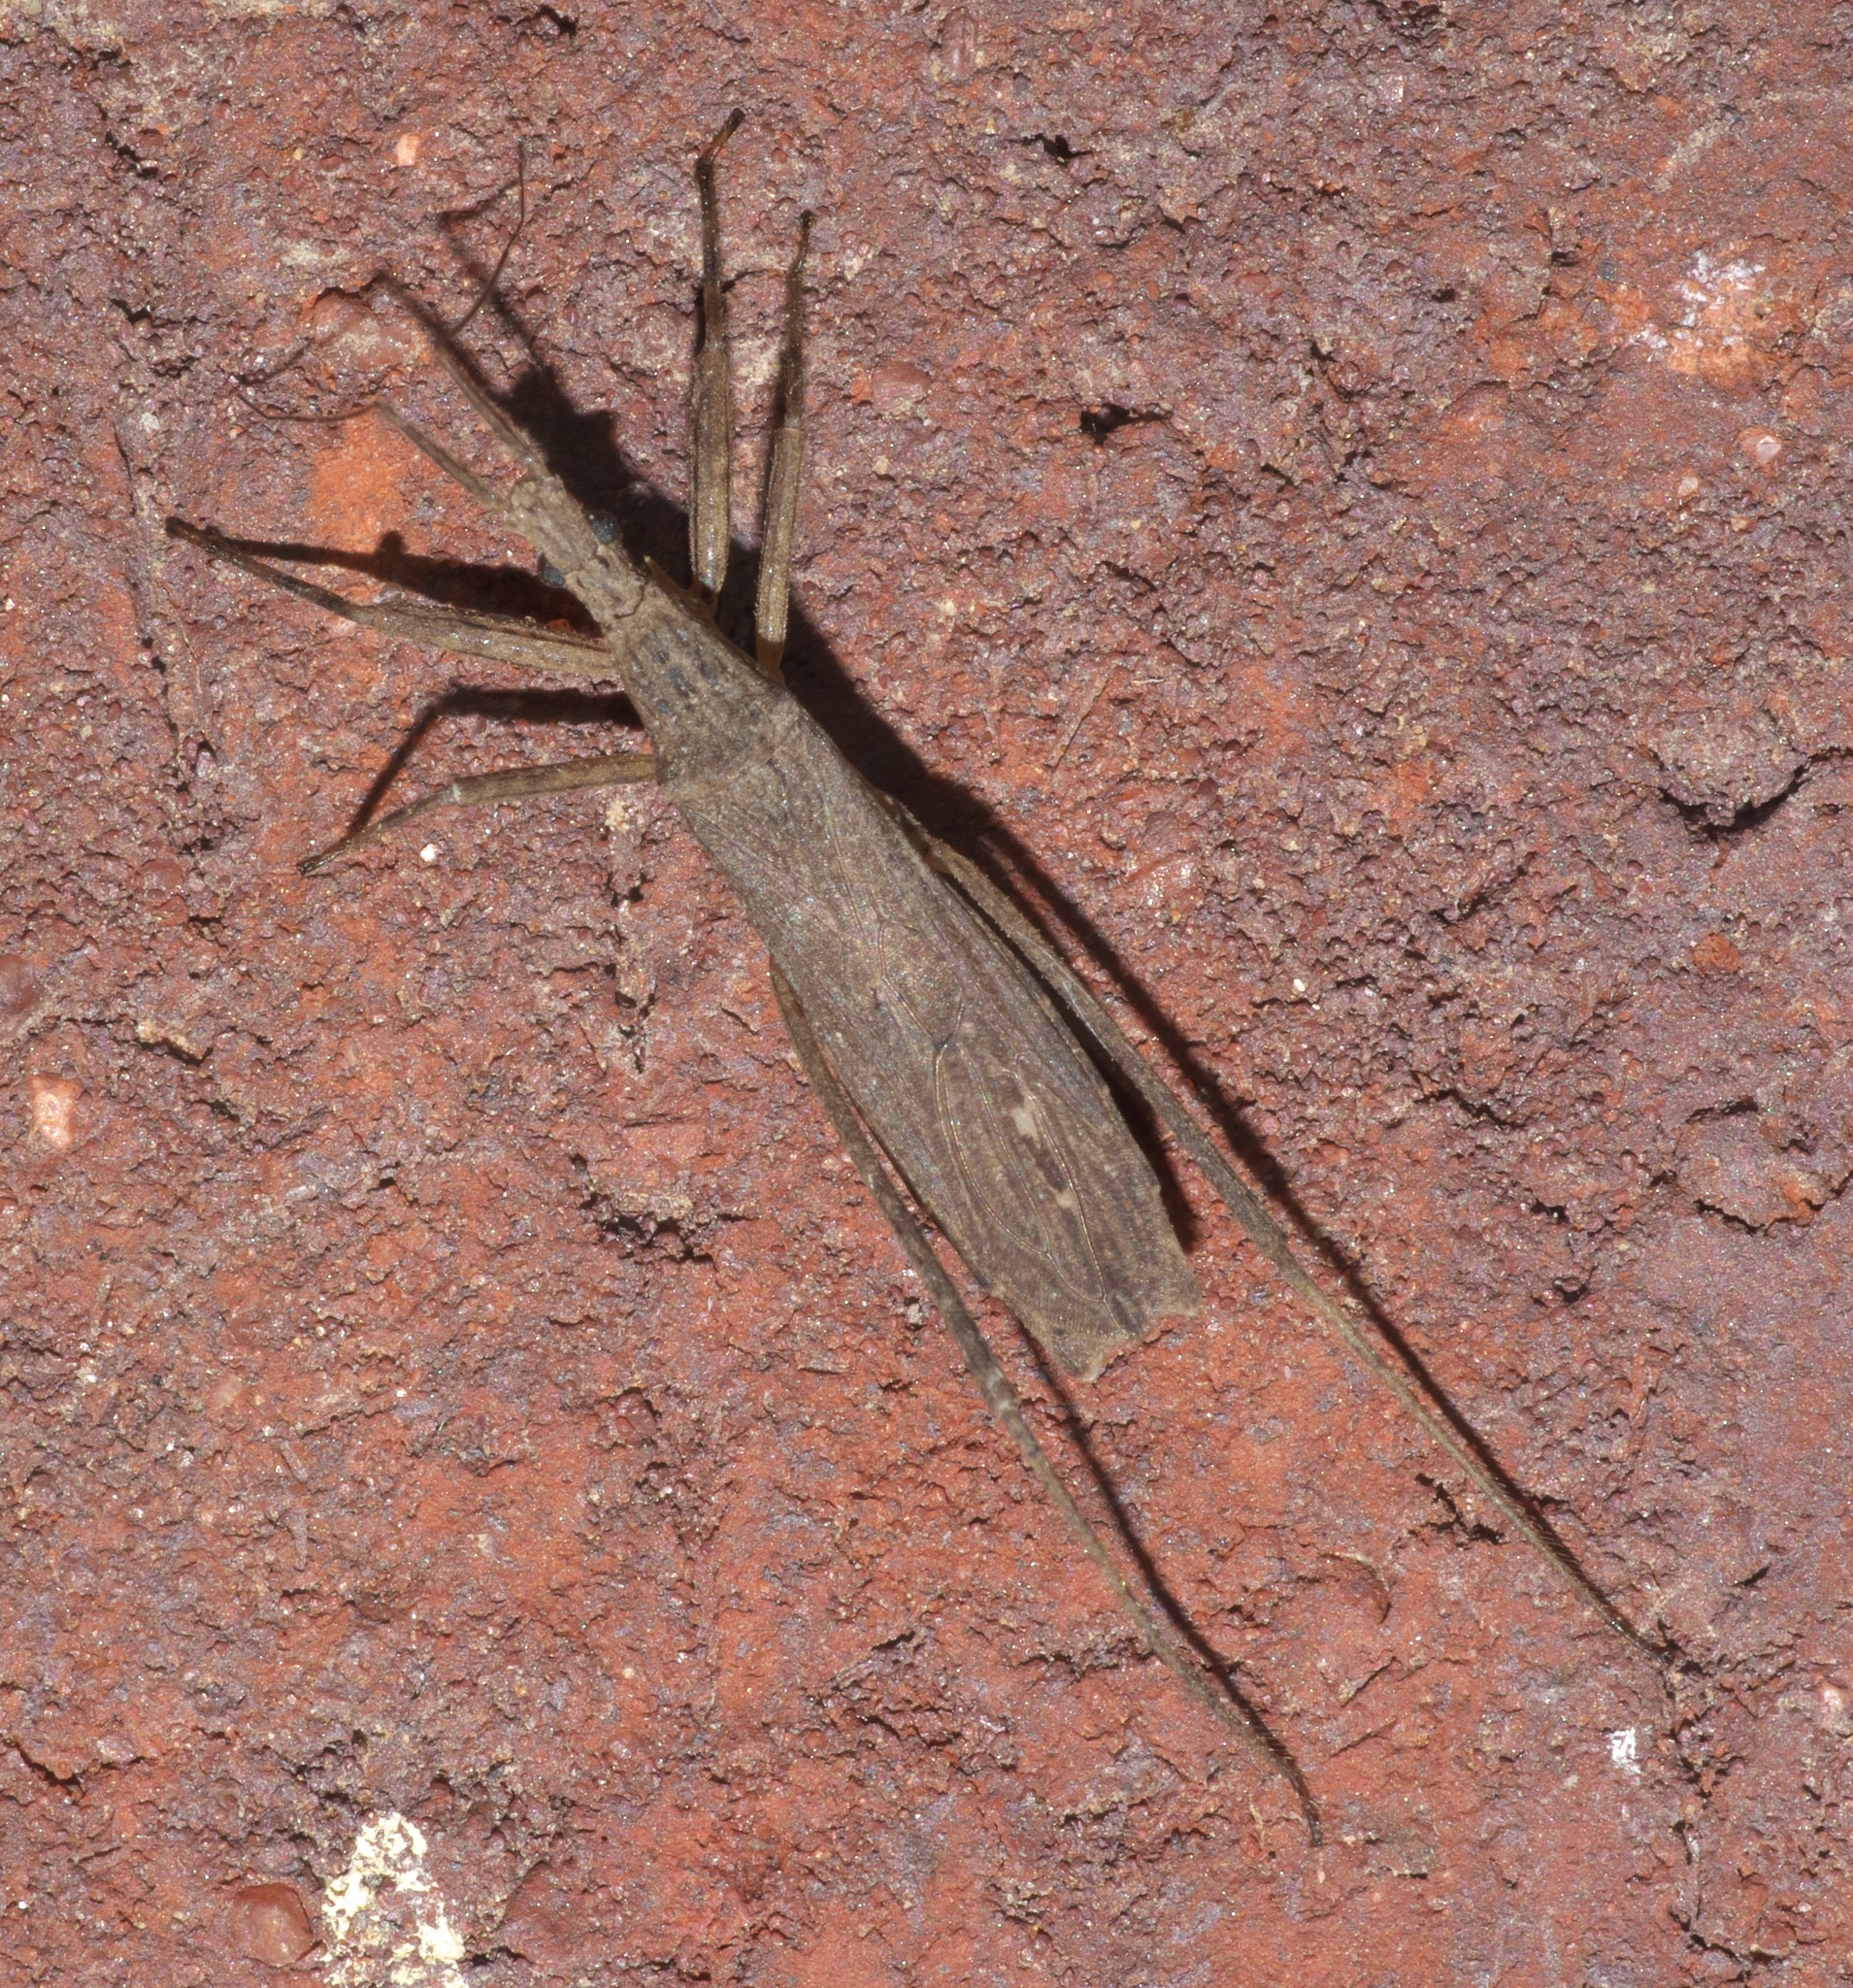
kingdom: Animalia
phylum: Arthropoda
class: Insecta
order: Hemiptera
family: Reduviidae
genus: Pygolampis
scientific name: Pygolampis pectoralis
